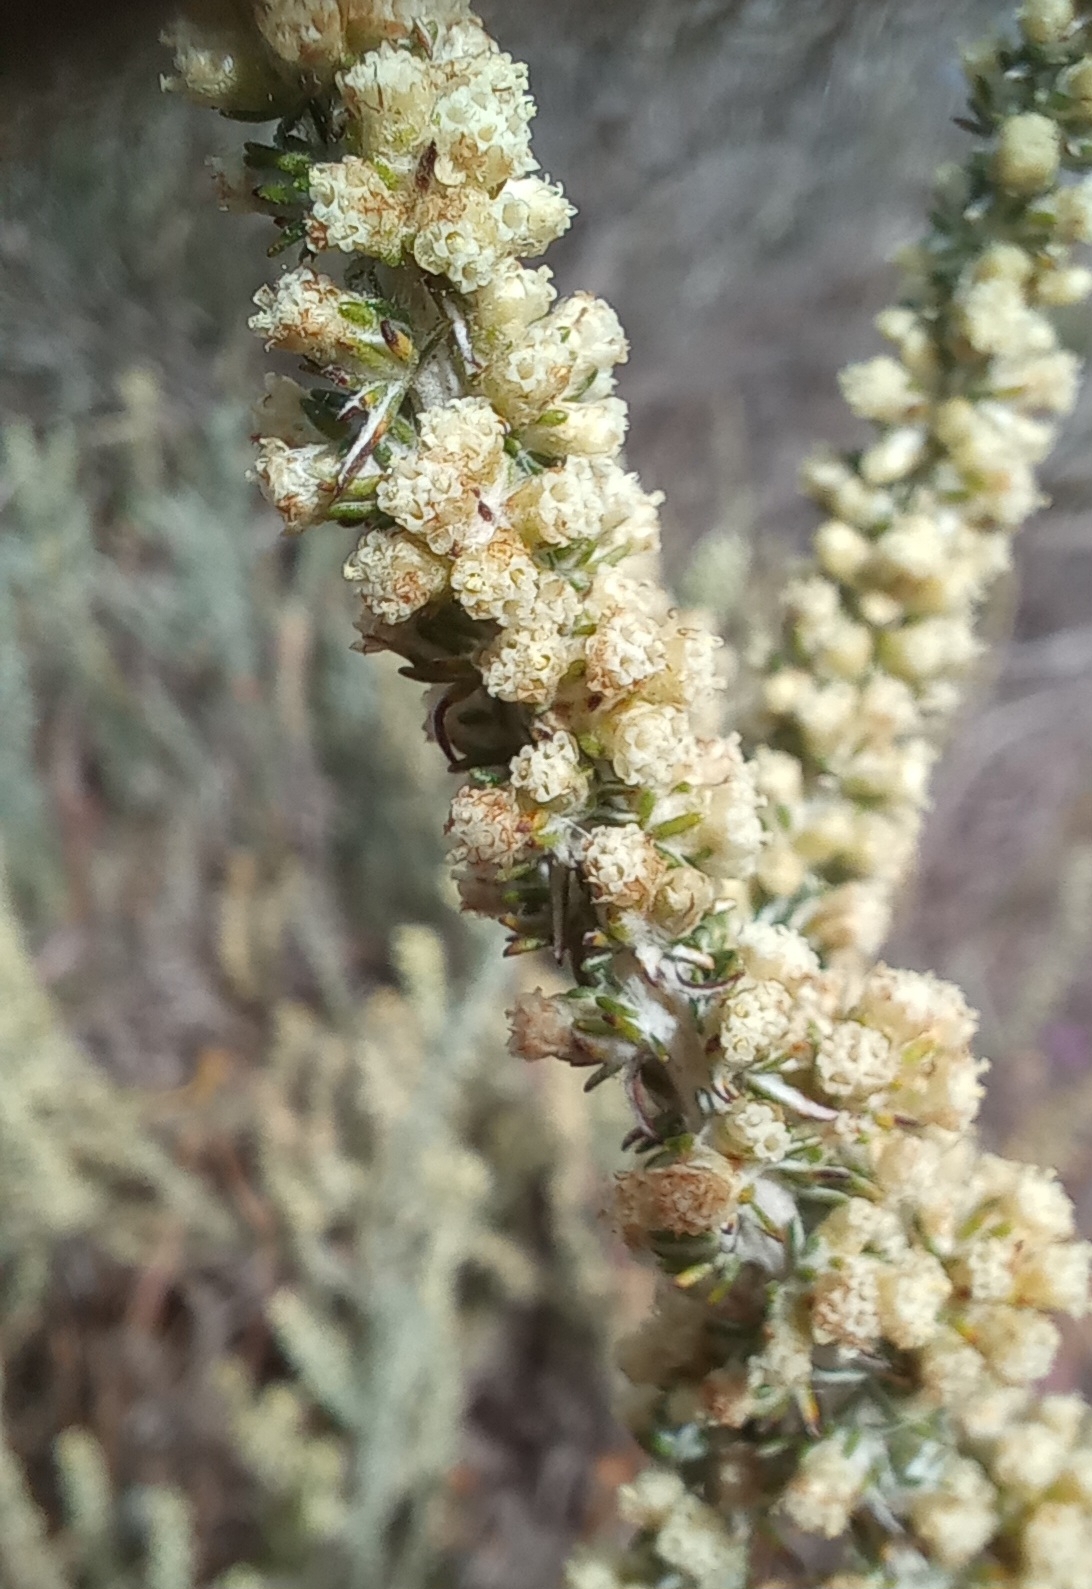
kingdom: Plantae
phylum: Tracheophyta
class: Magnoliopsida
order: Asterales
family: Asteraceae
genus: Ifloga
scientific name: Ifloga ambigua
